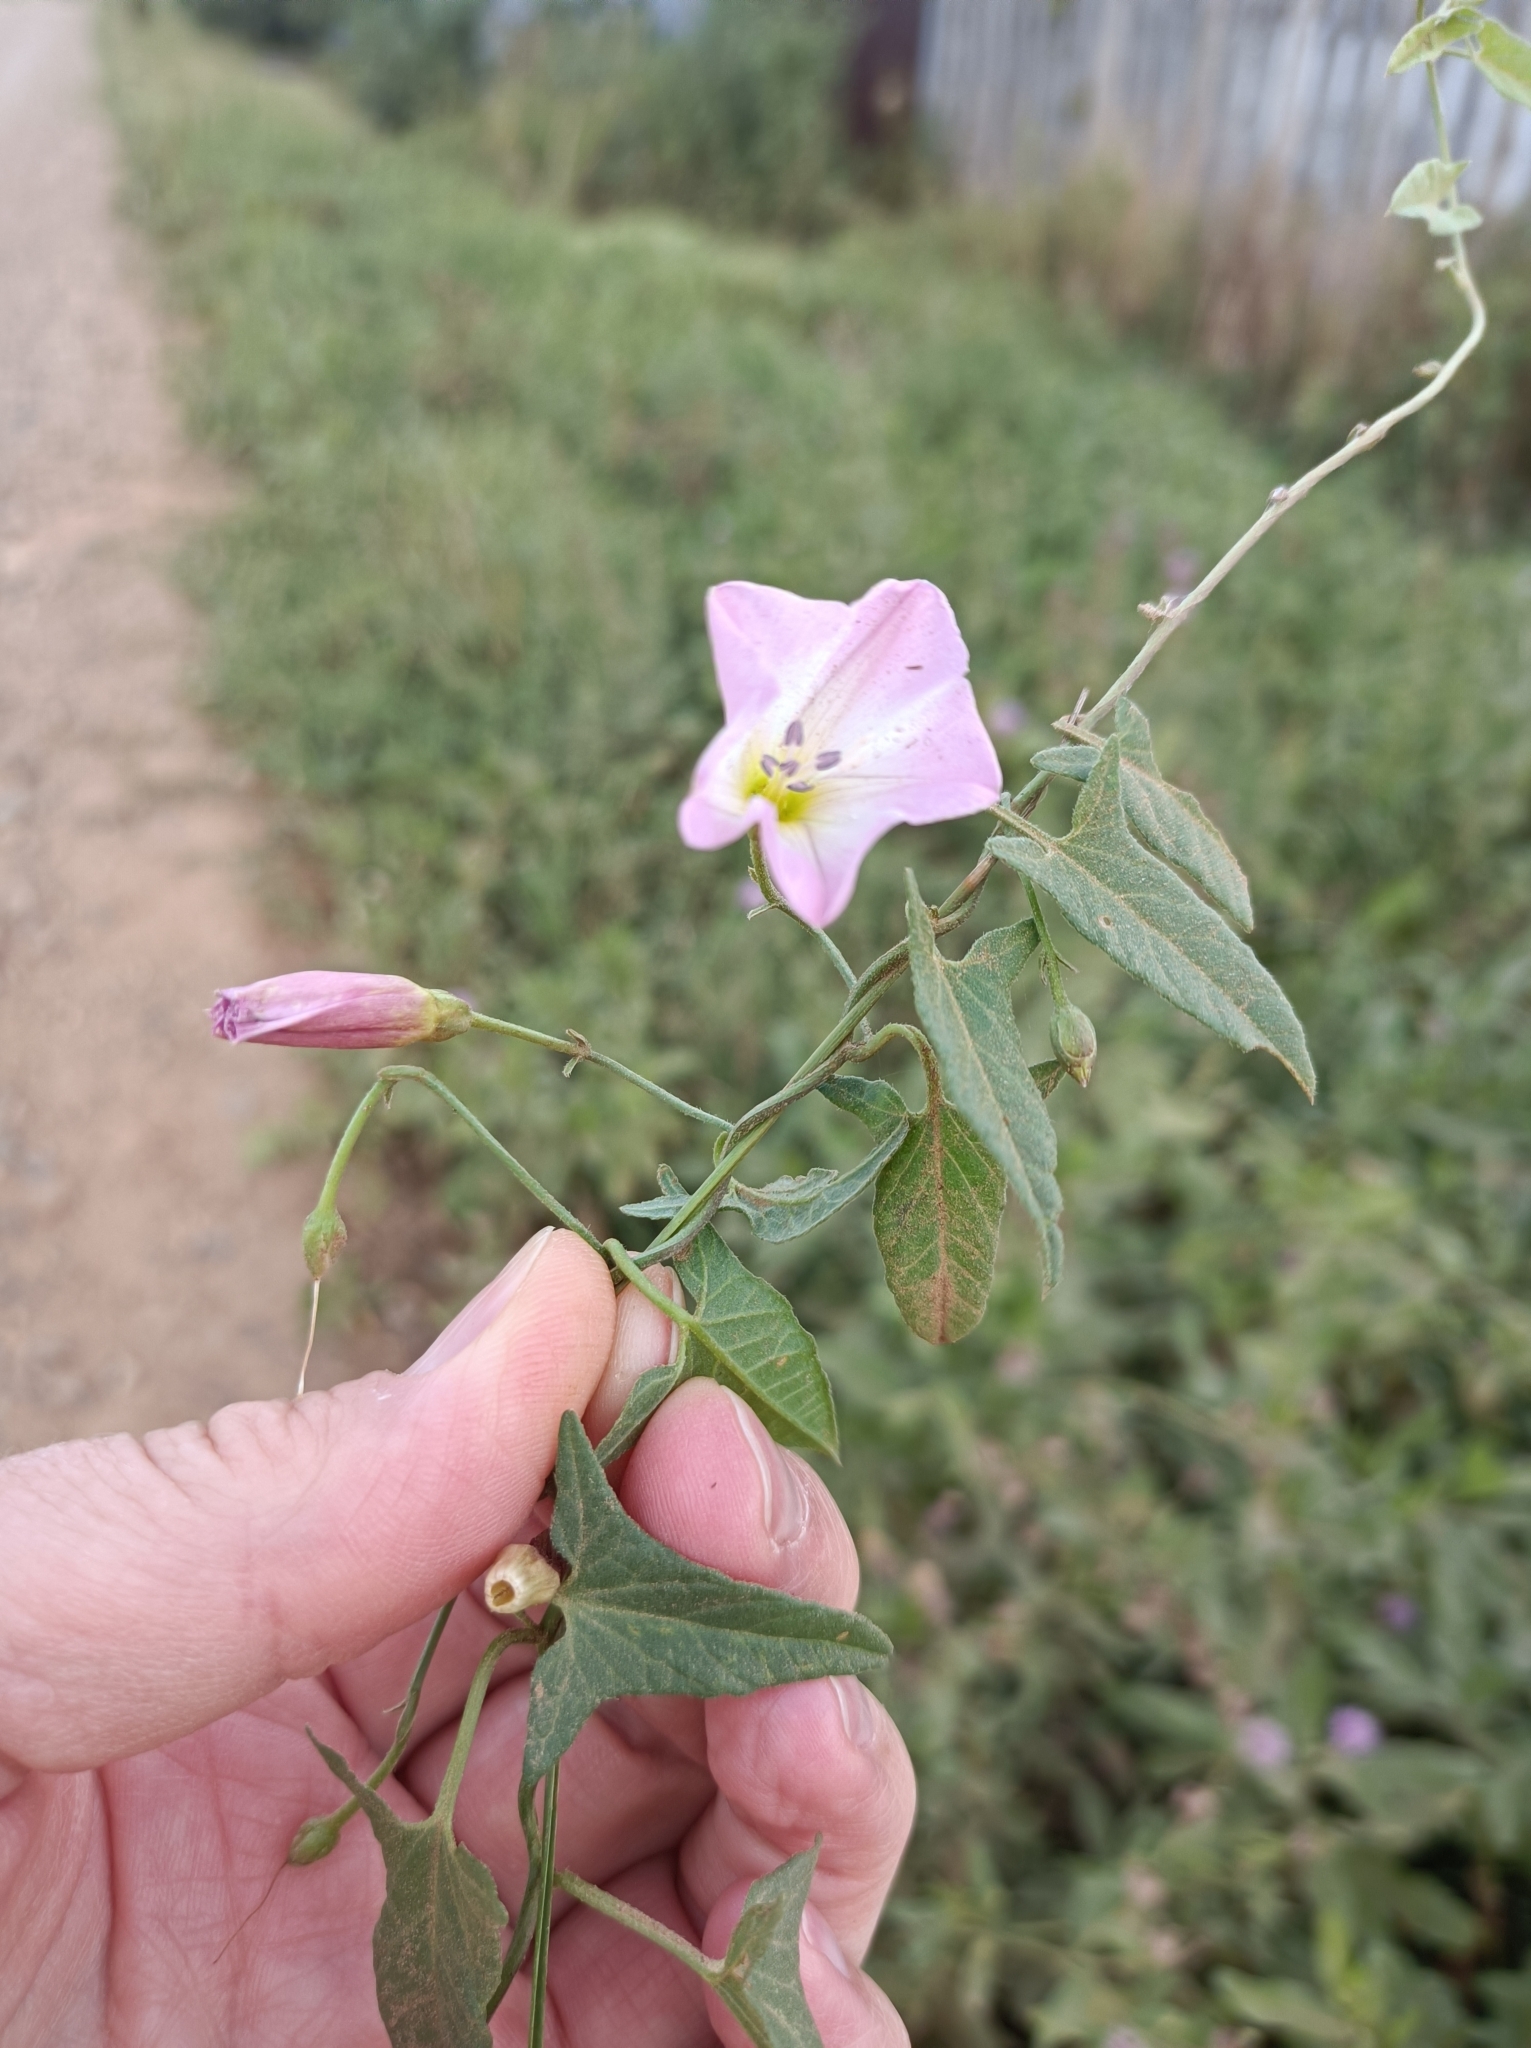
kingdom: Plantae
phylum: Tracheophyta
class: Magnoliopsida
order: Solanales
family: Convolvulaceae
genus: Convolvulus
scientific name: Convolvulus arvensis
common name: Field bindweed
